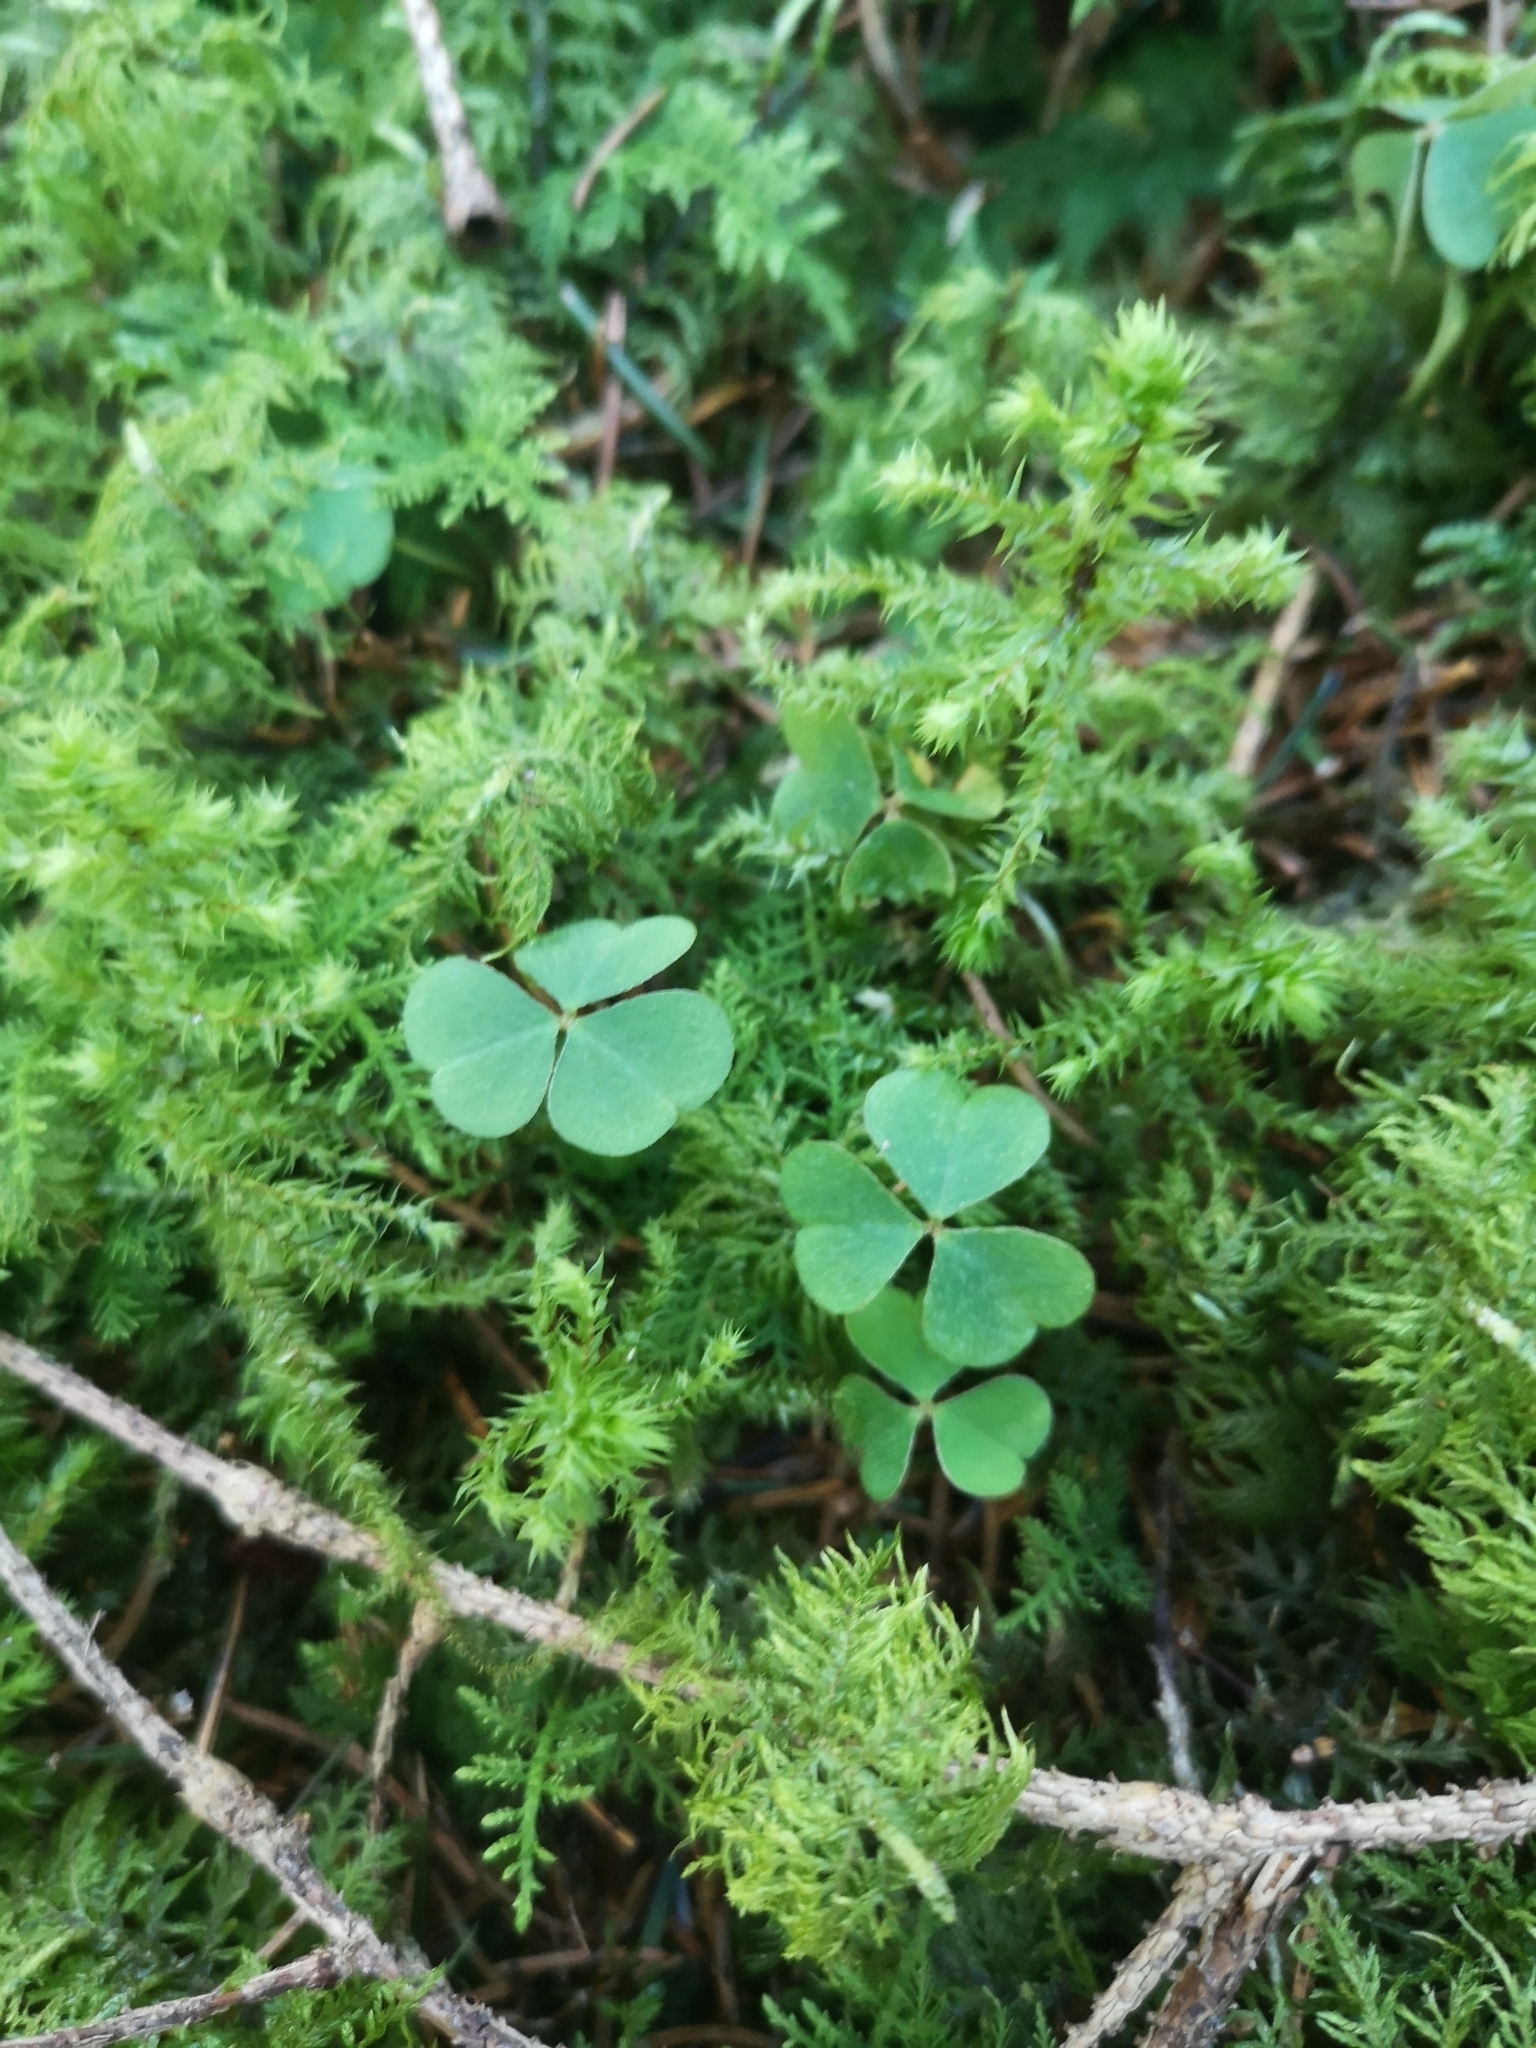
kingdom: Plantae
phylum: Tracheophyta
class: Magnoliopsida
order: Oxalidales
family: Oxalidaceae
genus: Oxalis
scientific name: Oxalis acetosella
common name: Wood-sorrel
